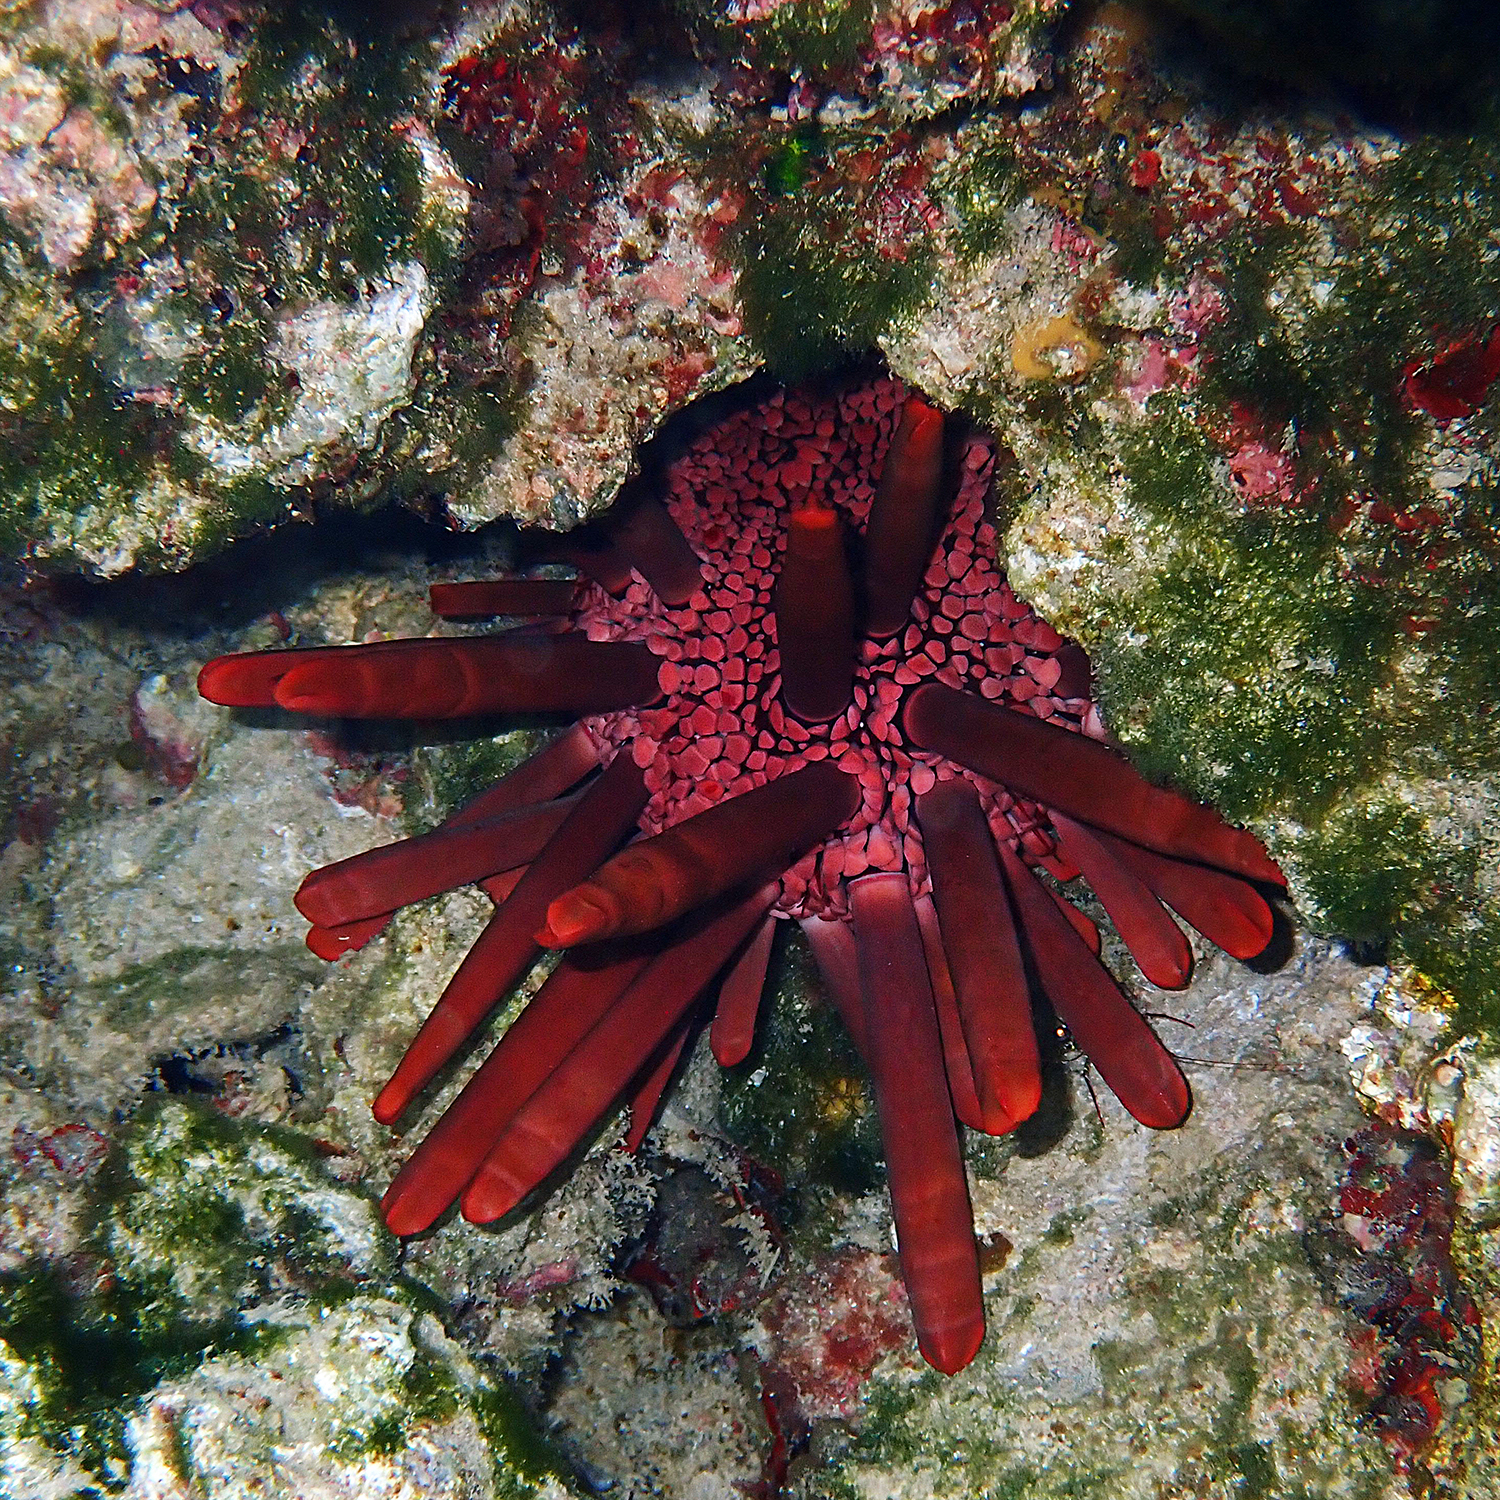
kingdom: Animalia
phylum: Echinodermata
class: Echinoidea
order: Camarodonta
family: Echinometridae
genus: Heterocentrotus
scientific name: Heterocentrotus mamillatus
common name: Slate pencil urchin
